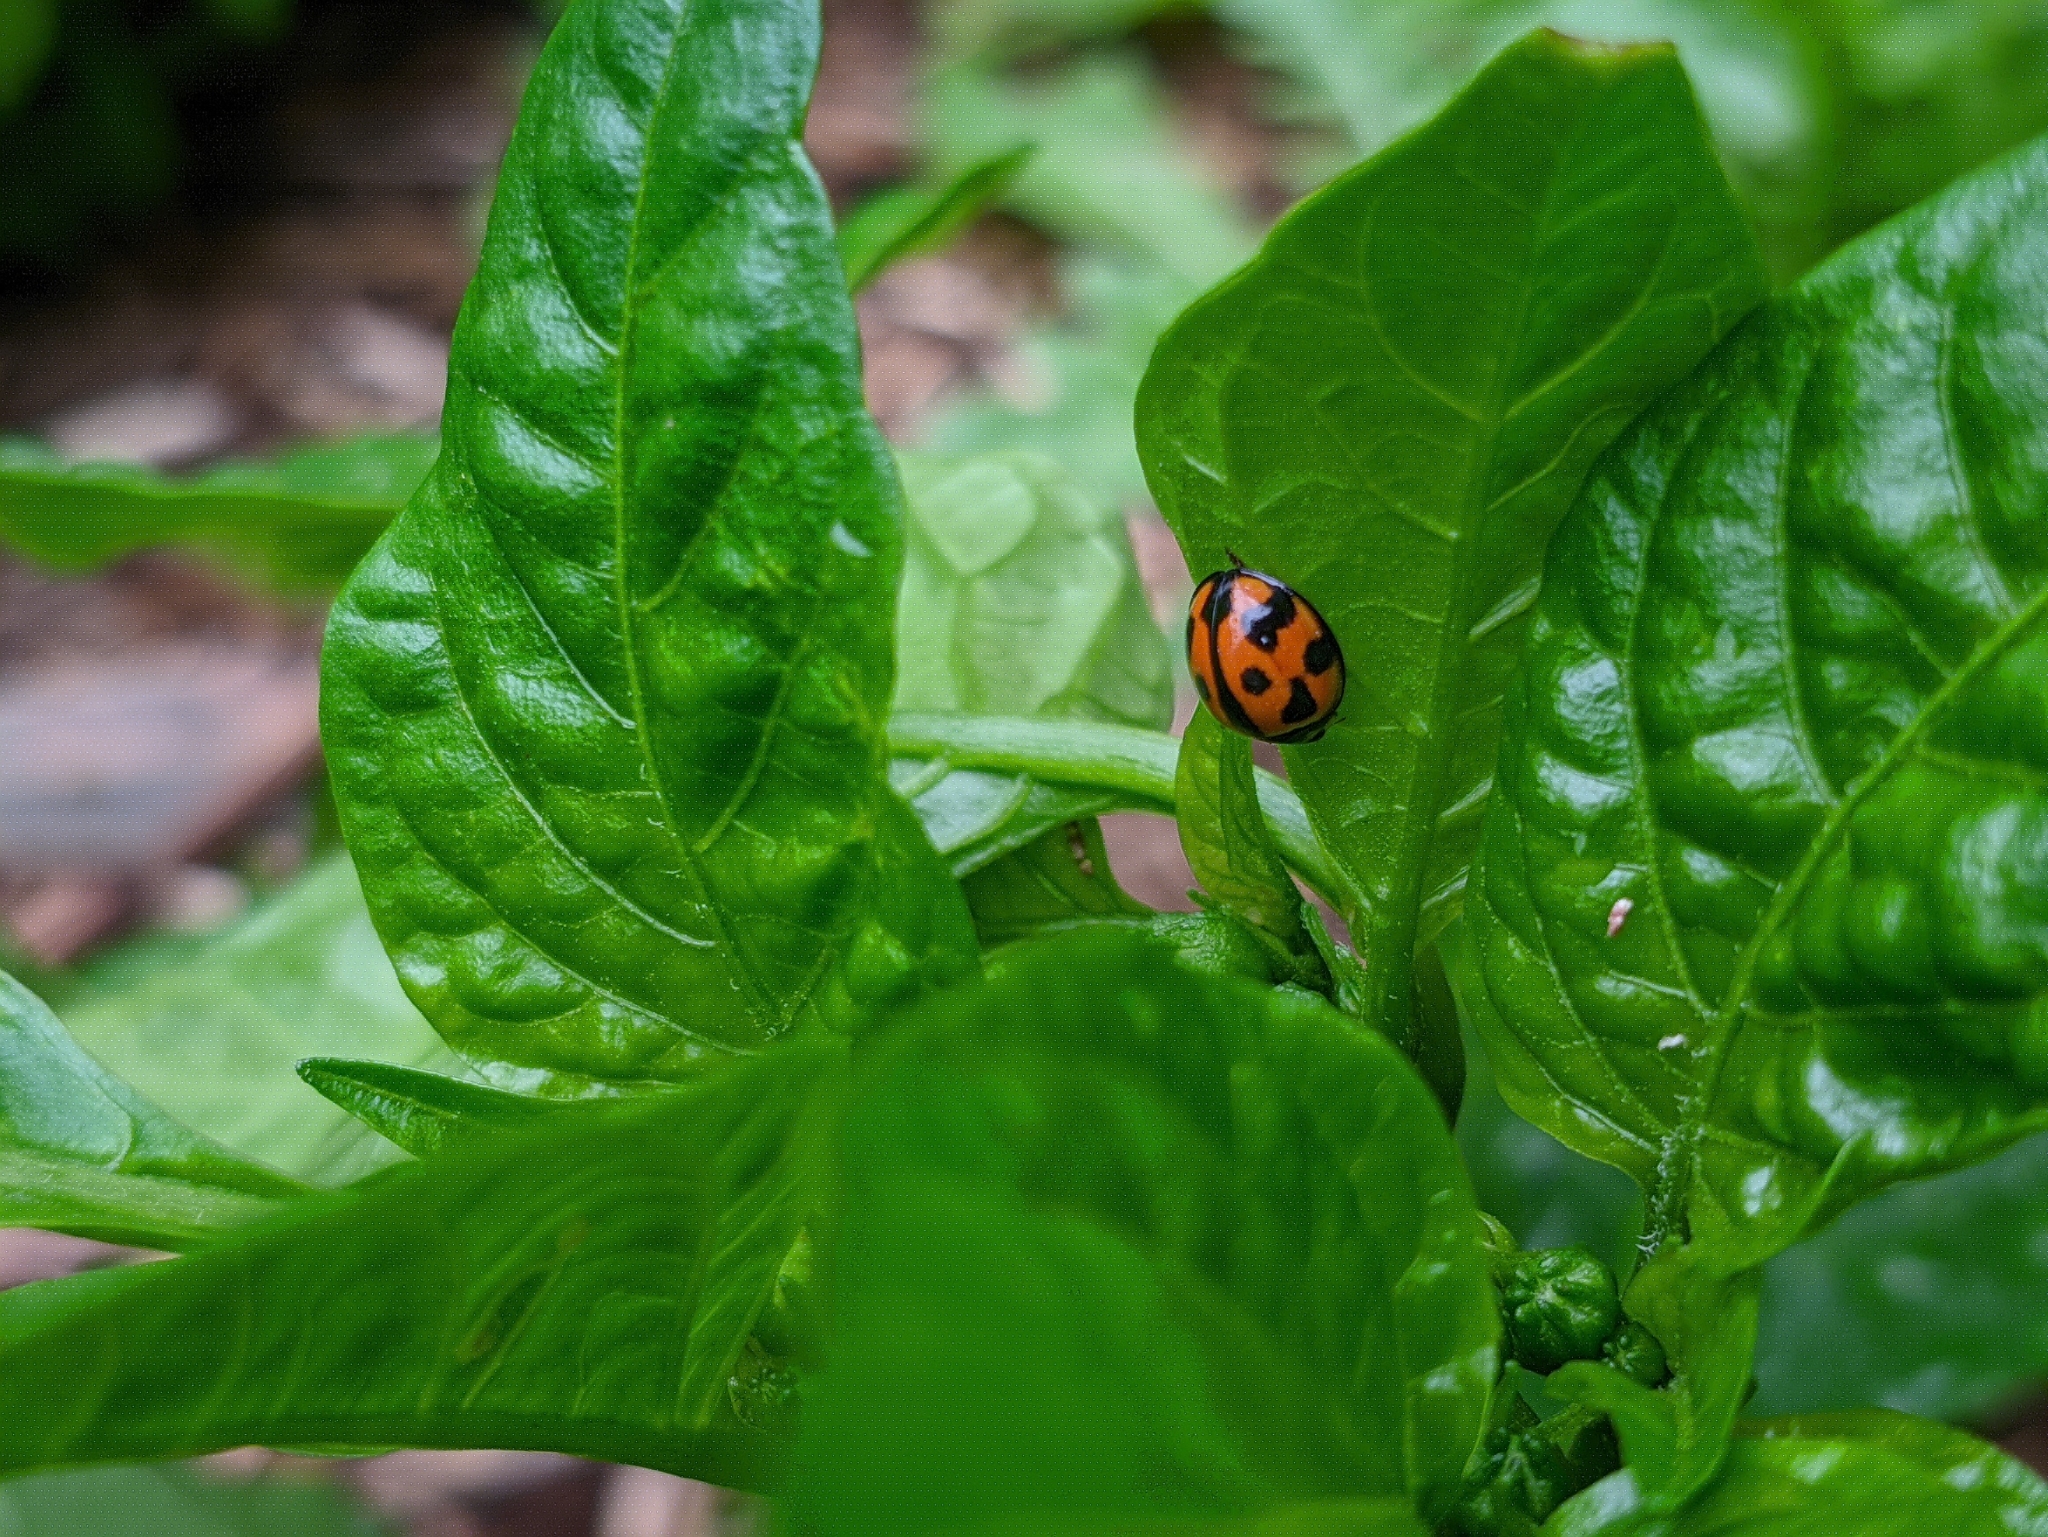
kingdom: Animalia
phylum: Arthropoda
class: Insecta
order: Coleoptera
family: Coccinellidae
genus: Coelophora
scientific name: Coelophora inaequalis
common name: Common australian lady beetle
